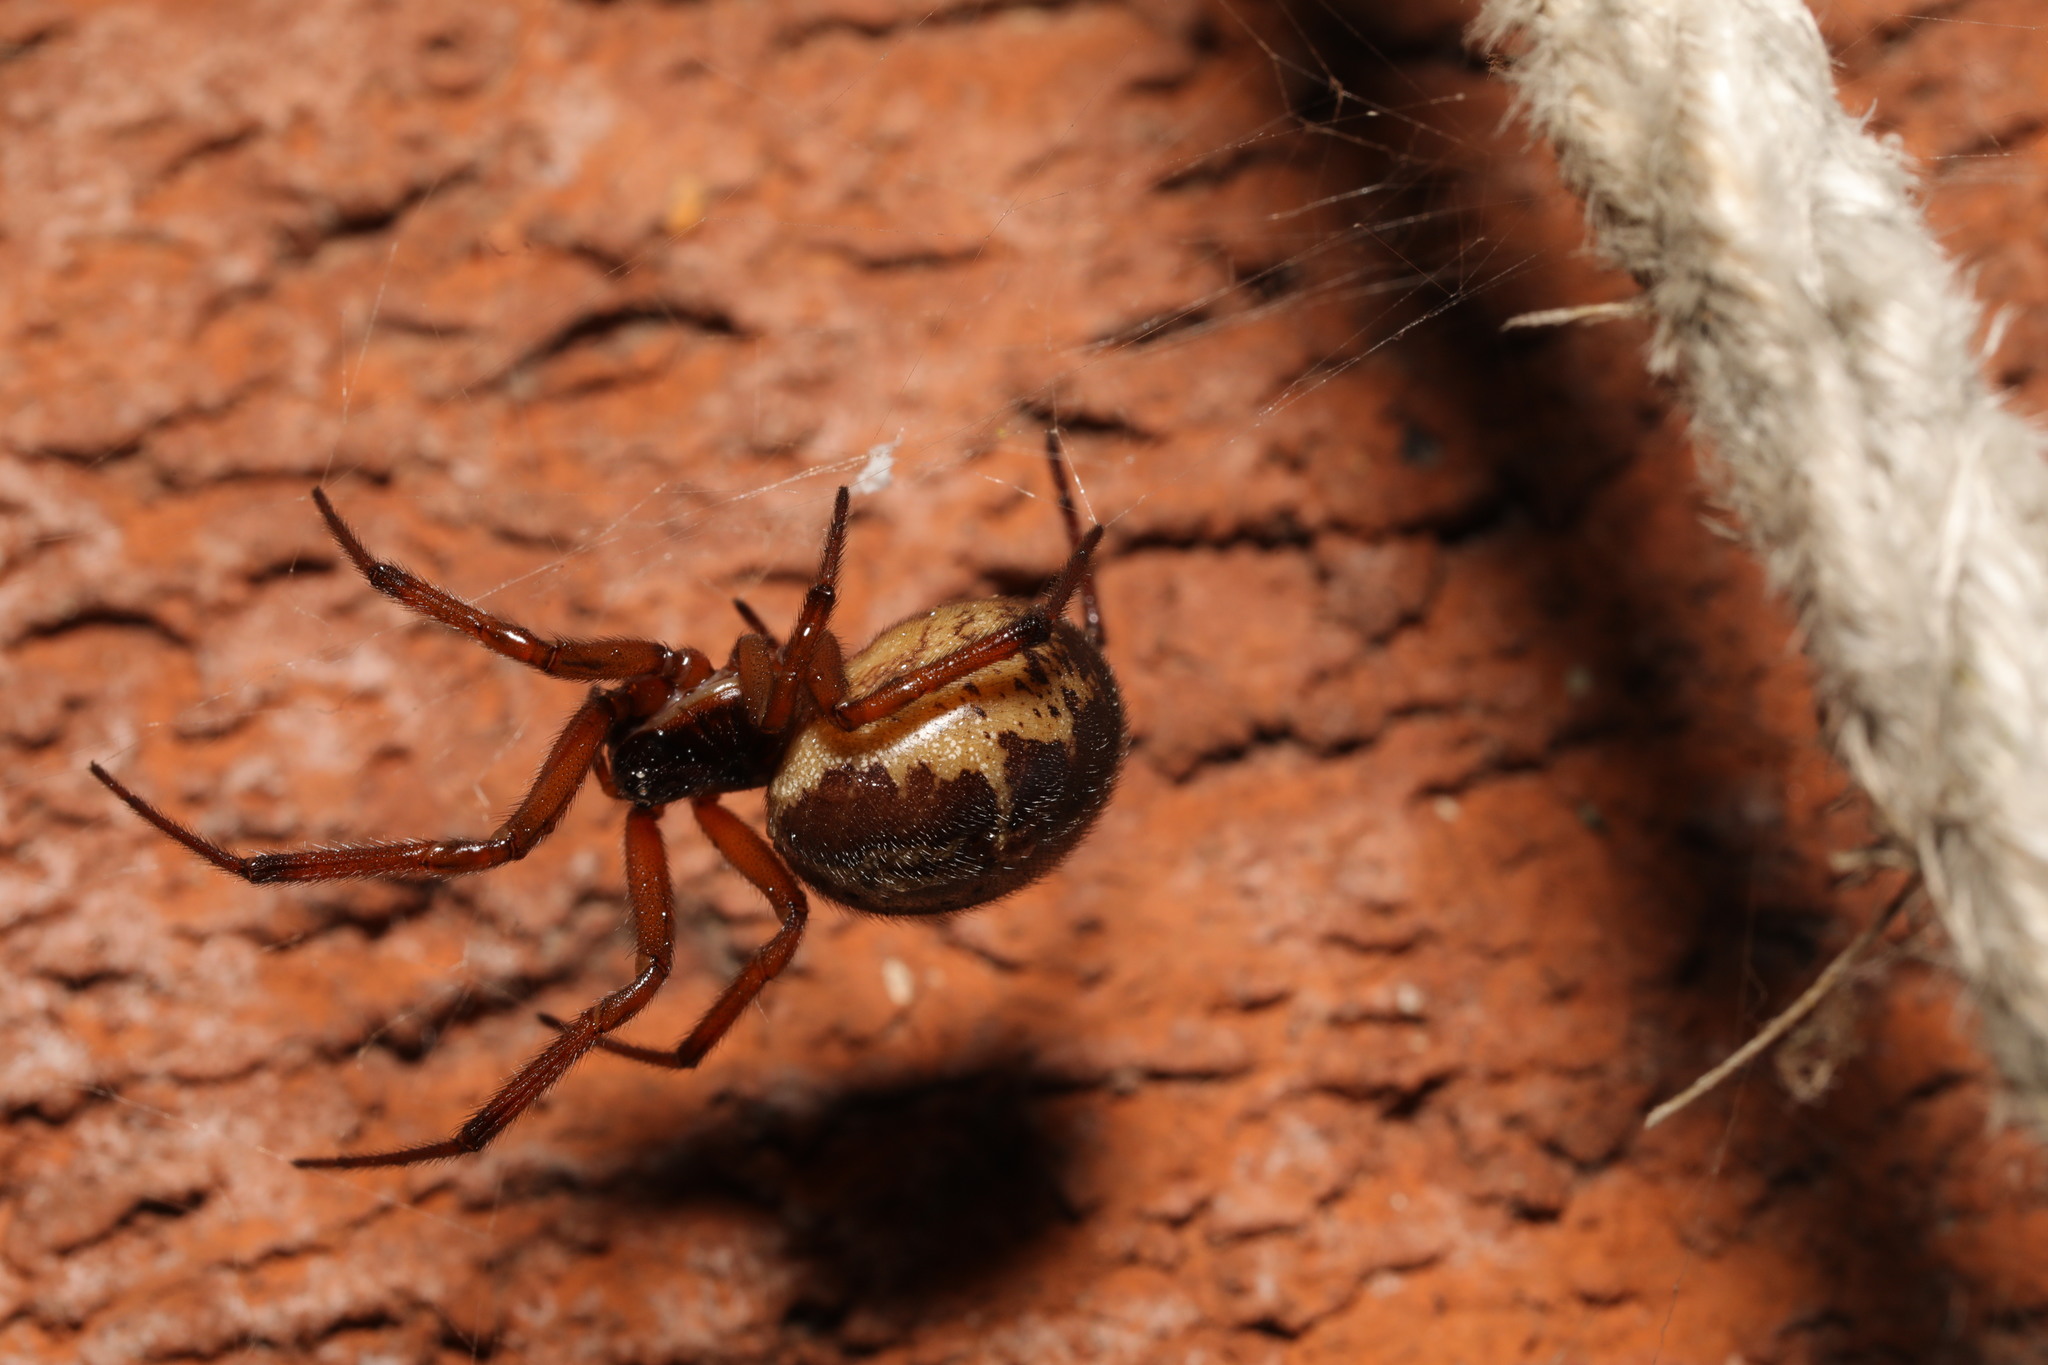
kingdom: Animalia
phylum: Arthropoda
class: Arachnida
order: Araneae
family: Theridiidae
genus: Steatoda
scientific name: Steatoda nobilis
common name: Cobweb weaver
